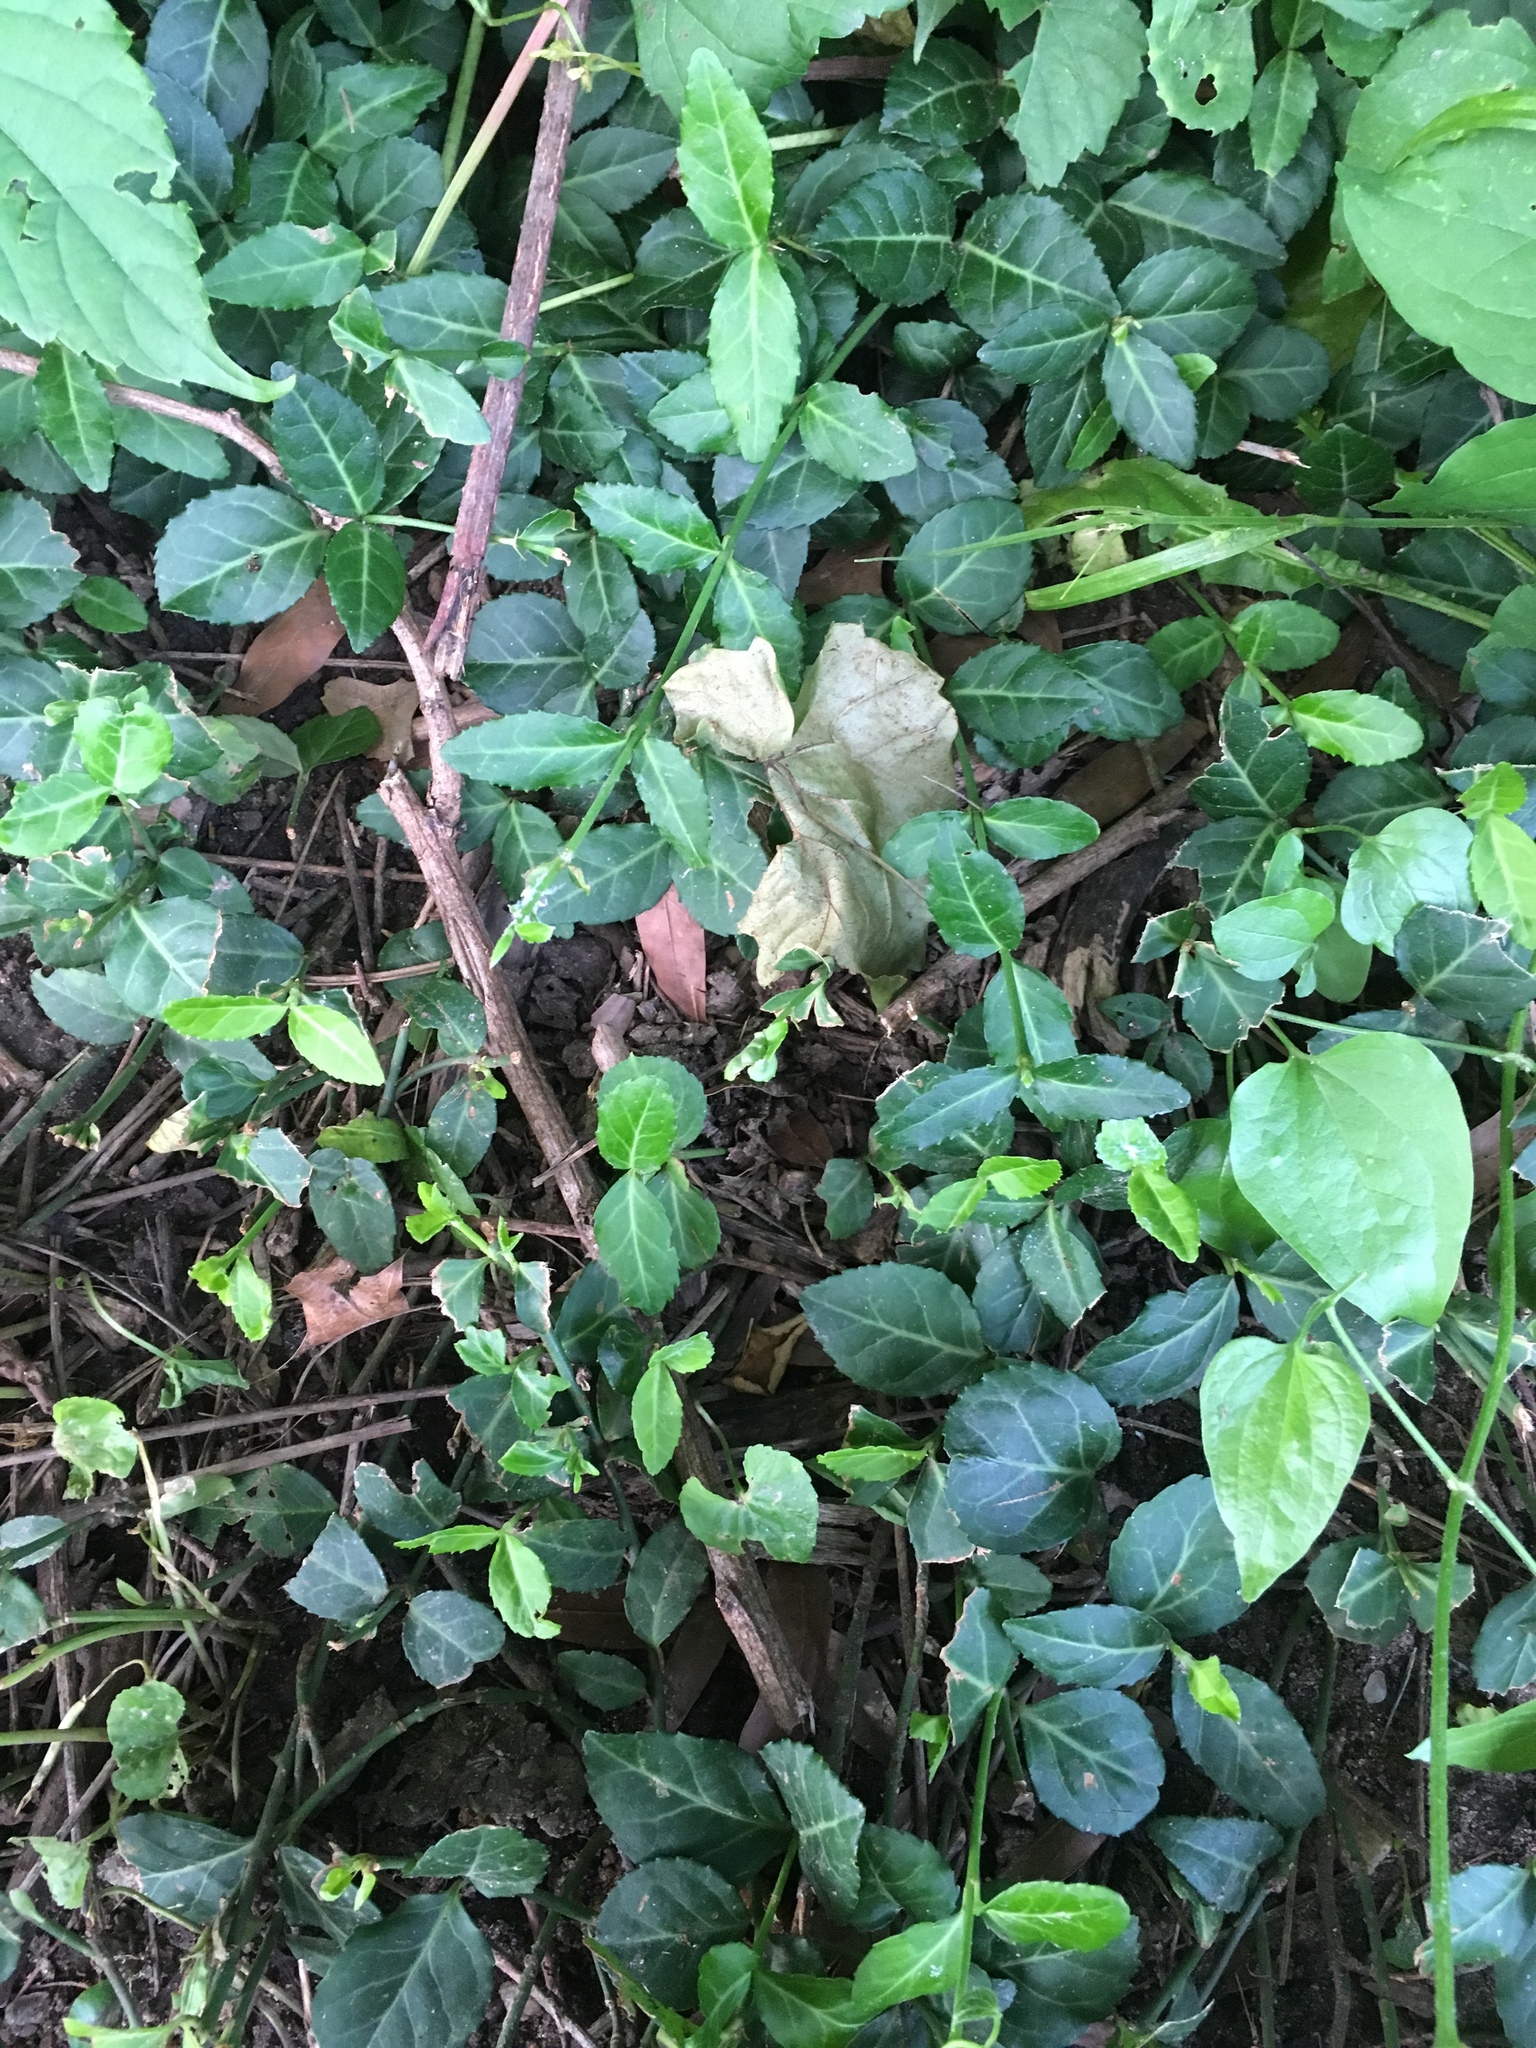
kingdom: Plantae
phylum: Tracheophyta
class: Magnoliopsida
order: Celastrales
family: Celastraceae
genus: Euonymus
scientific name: Euonymus fortunei
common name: Climbing euonymus
